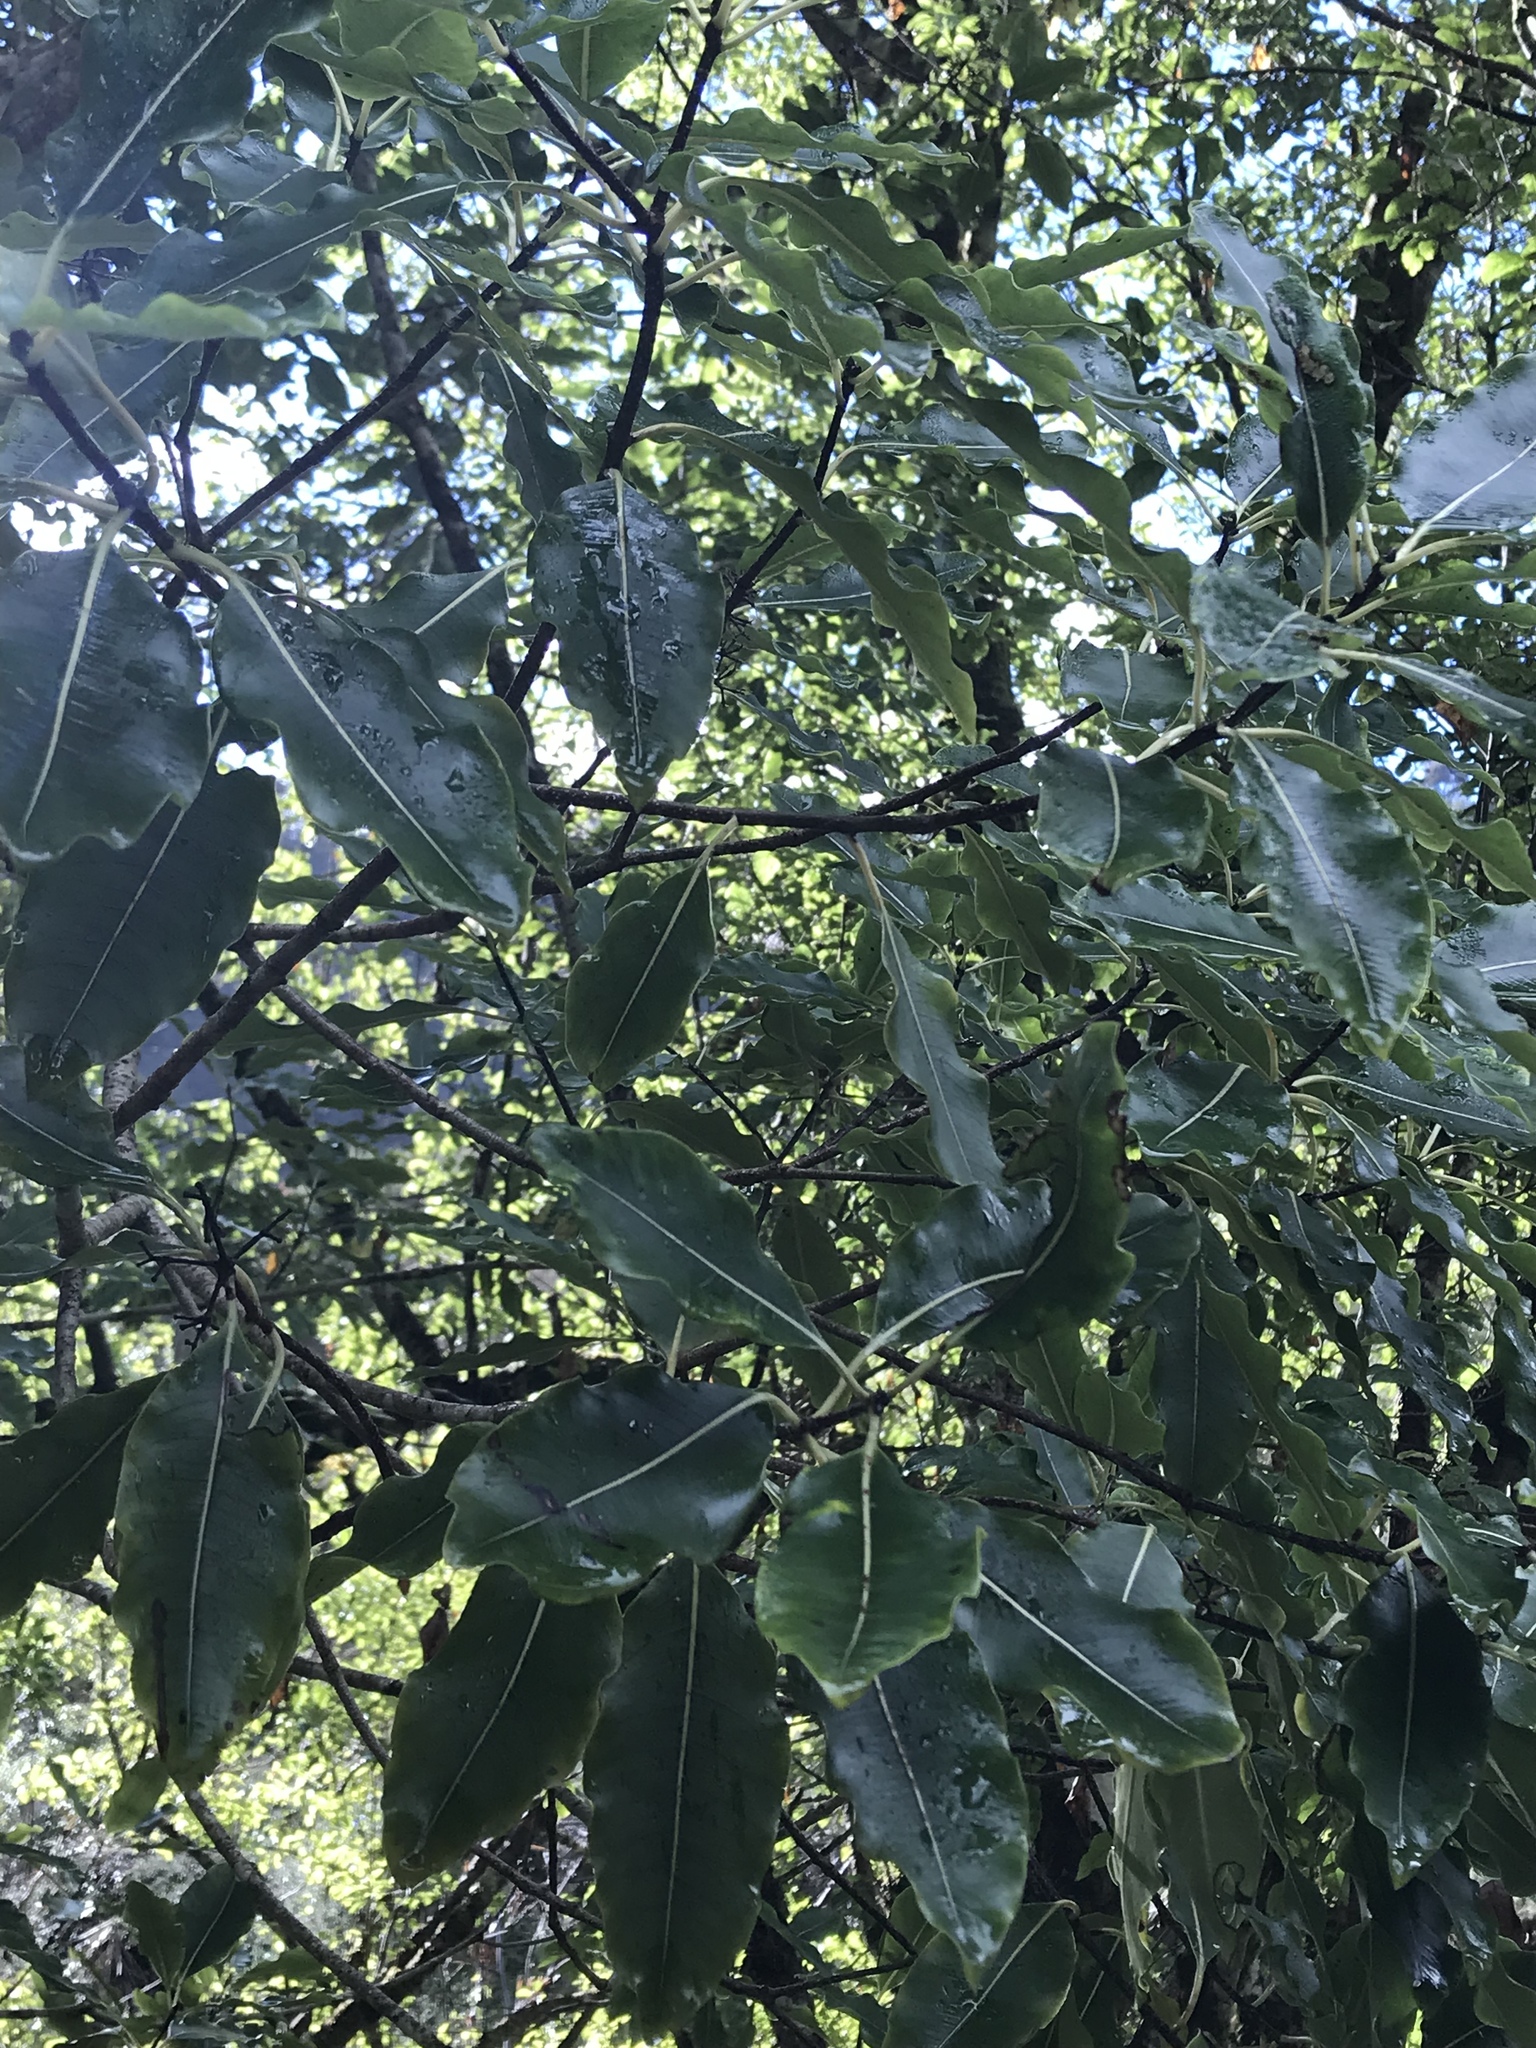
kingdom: Plantae
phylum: Tracheophyta
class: Magnoliopsida
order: Apiales
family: Pittosporaceae
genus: Pittosporum
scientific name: Pittosporum eugenioides
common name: Lemonwood
